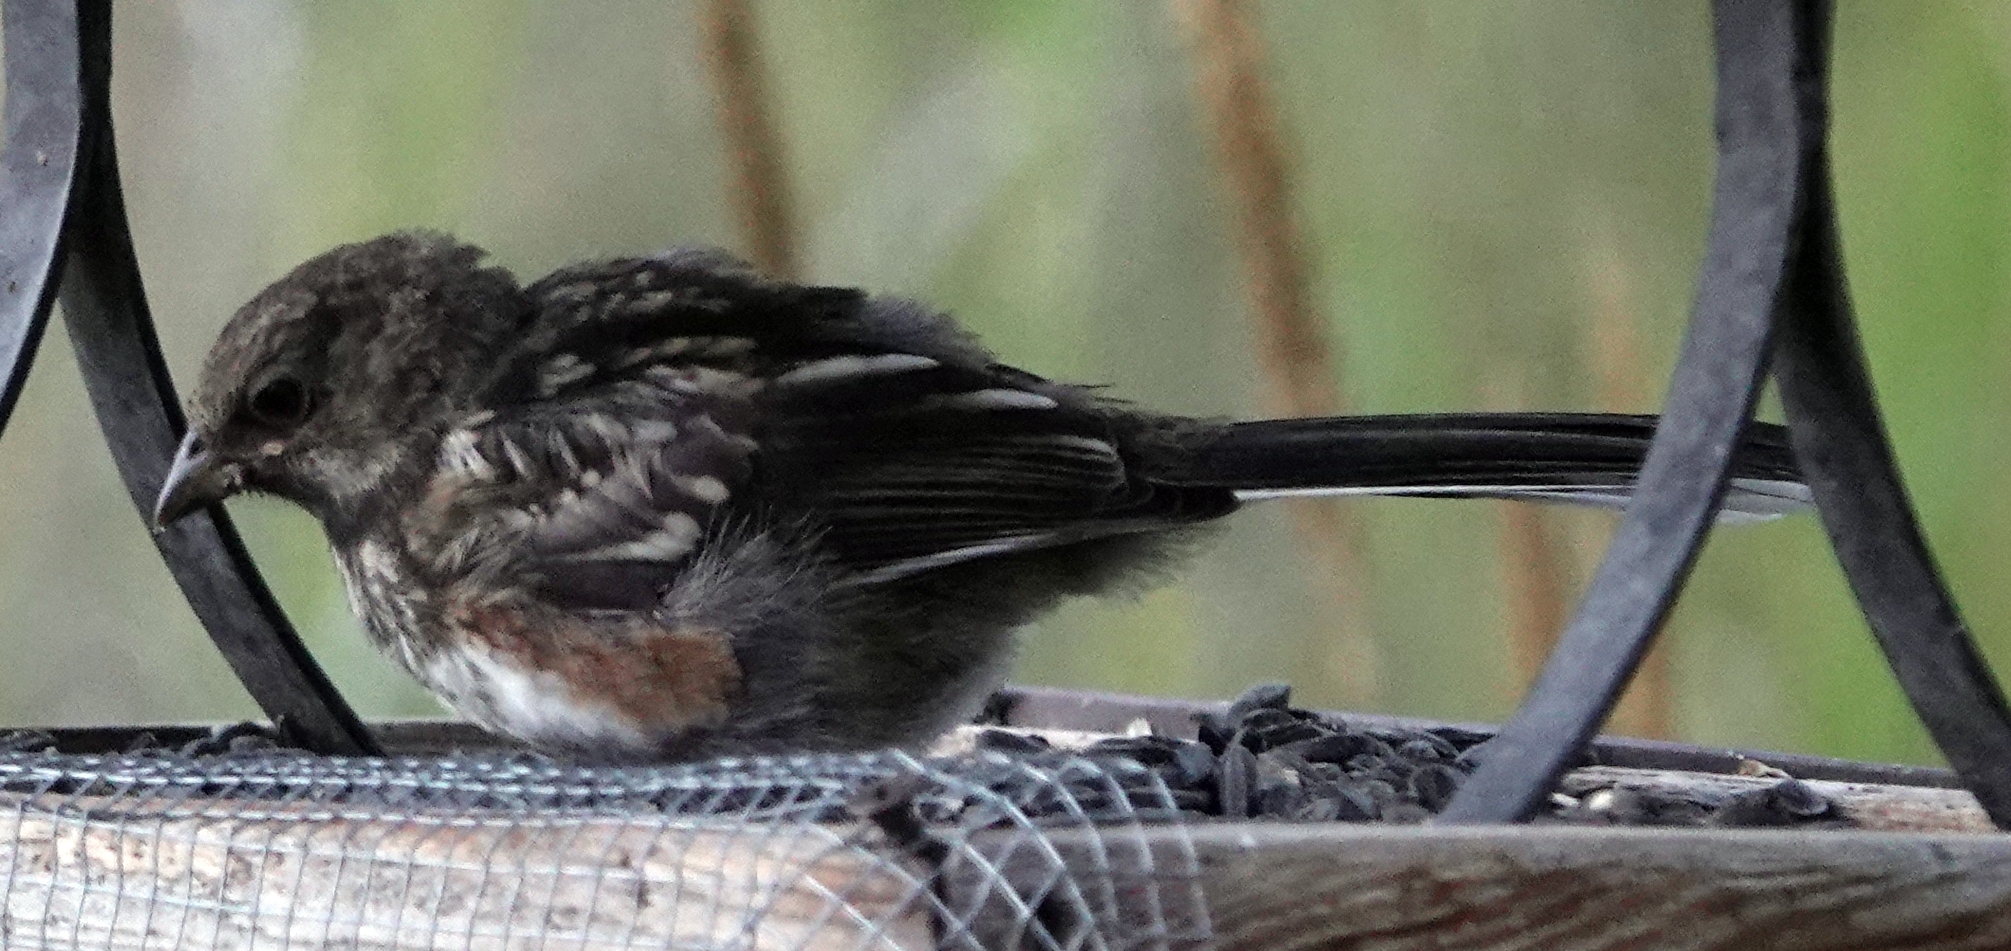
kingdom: Animalia
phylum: Chordata
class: Aves
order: Passeriformes
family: Passerellidae
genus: Pipilo
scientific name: Pipilo maculatus
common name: Spotted towhee
